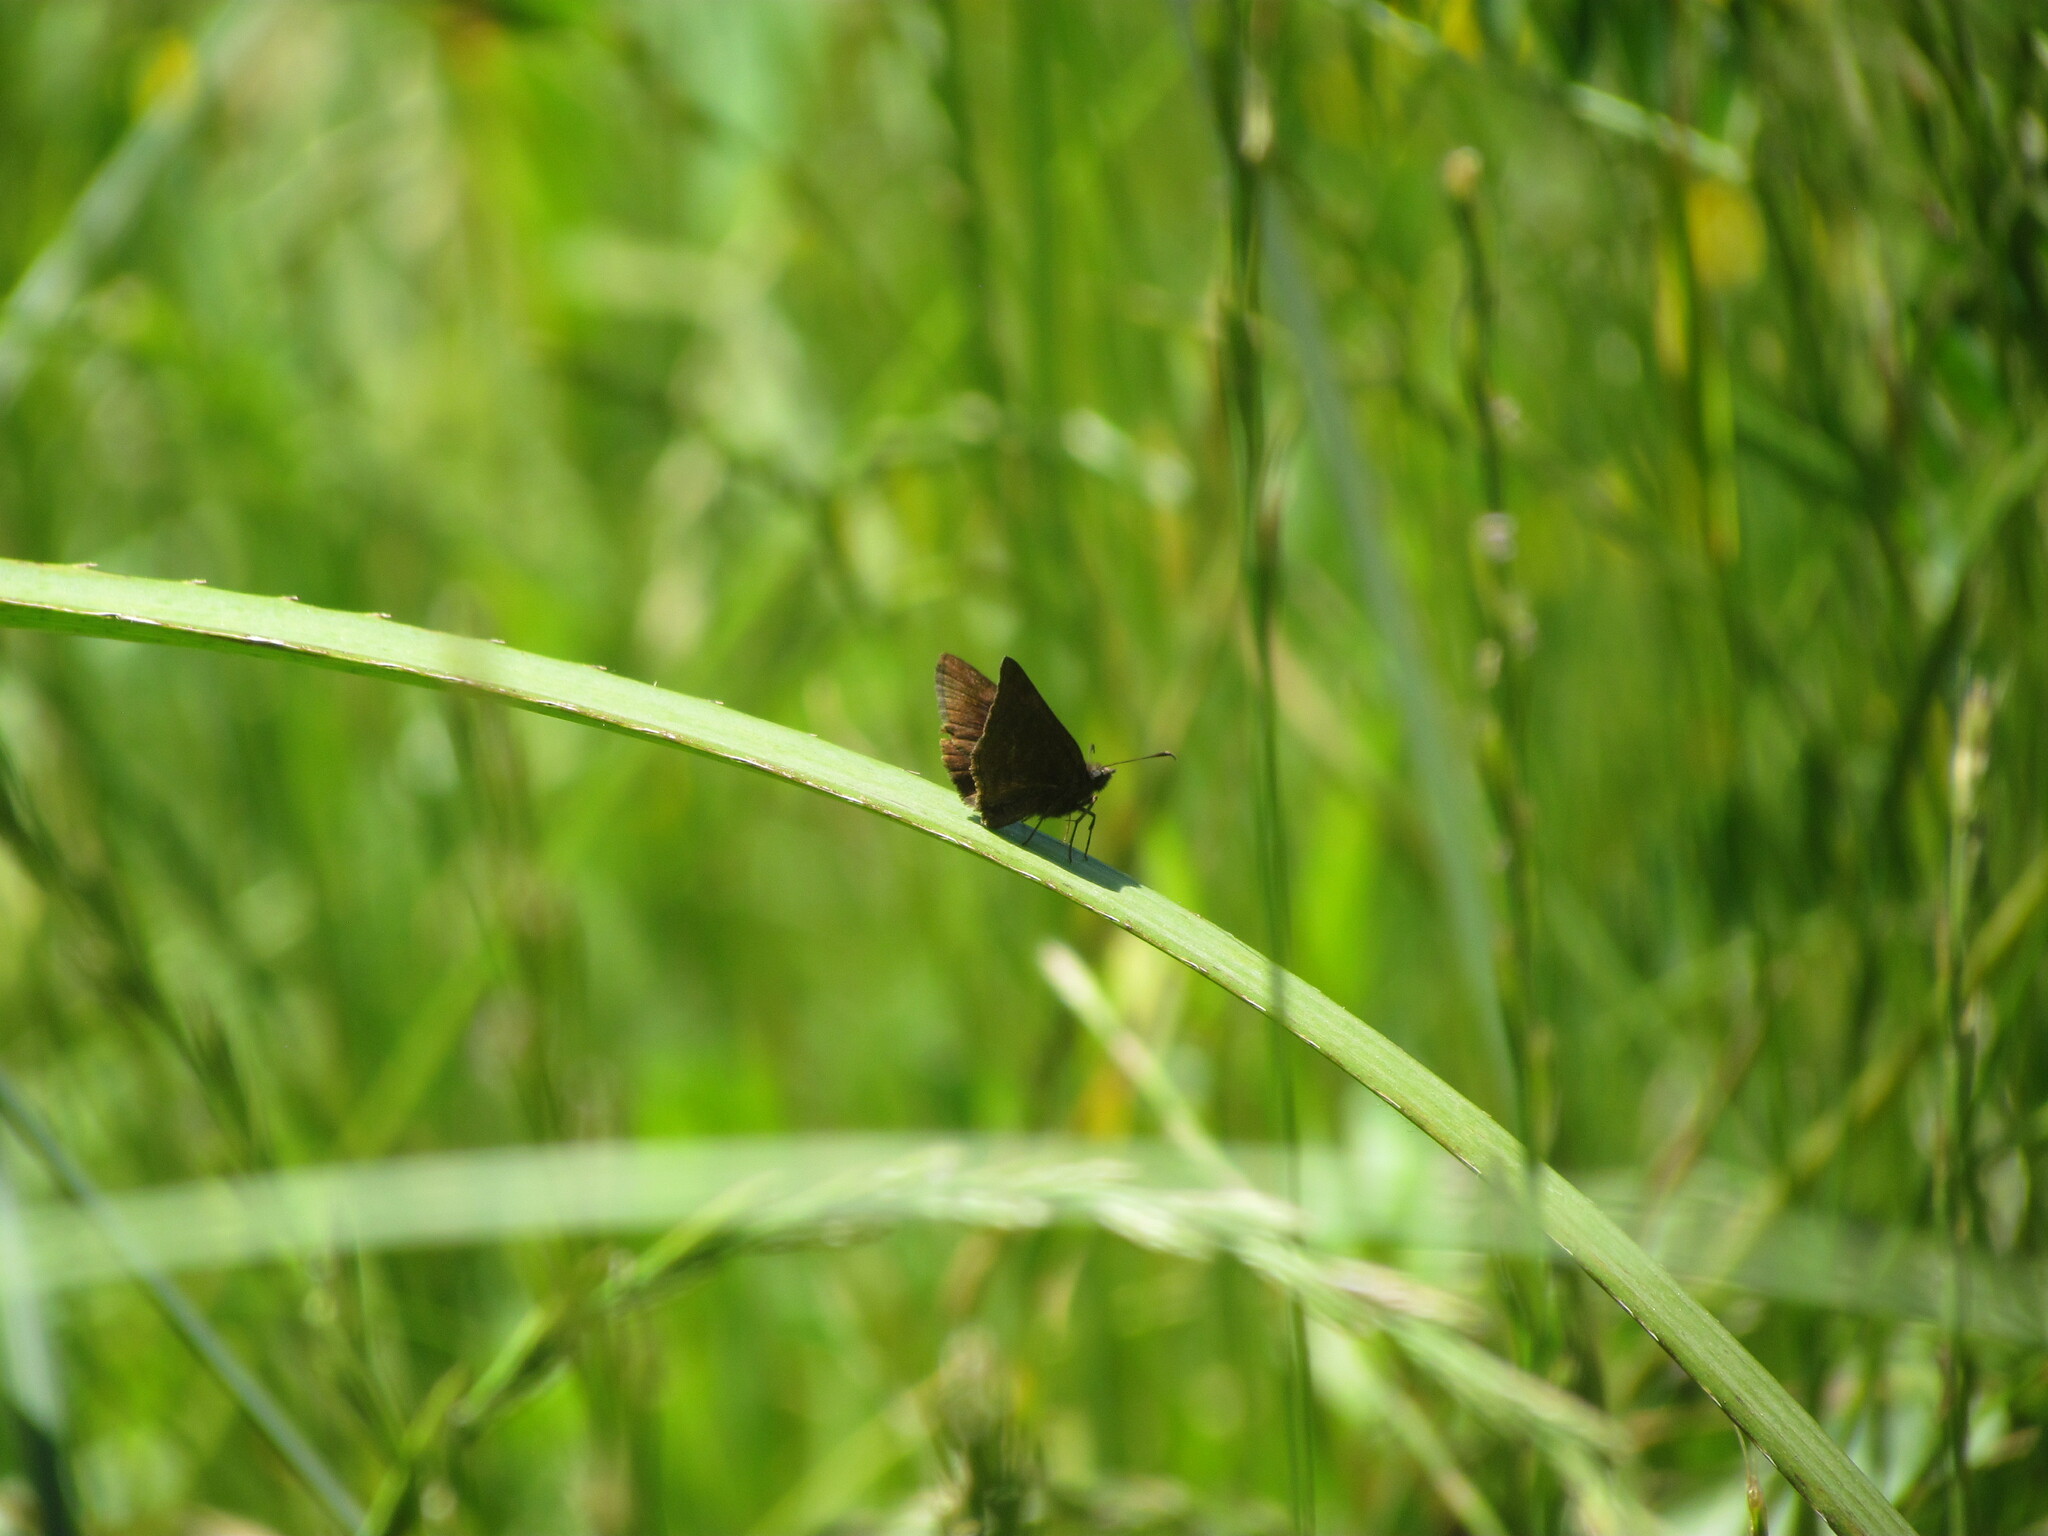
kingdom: Animalia
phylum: Arthropoda
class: Insecta
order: Lepidoptera
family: Nymphalidae
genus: Ortilia
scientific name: Ortilia velica
